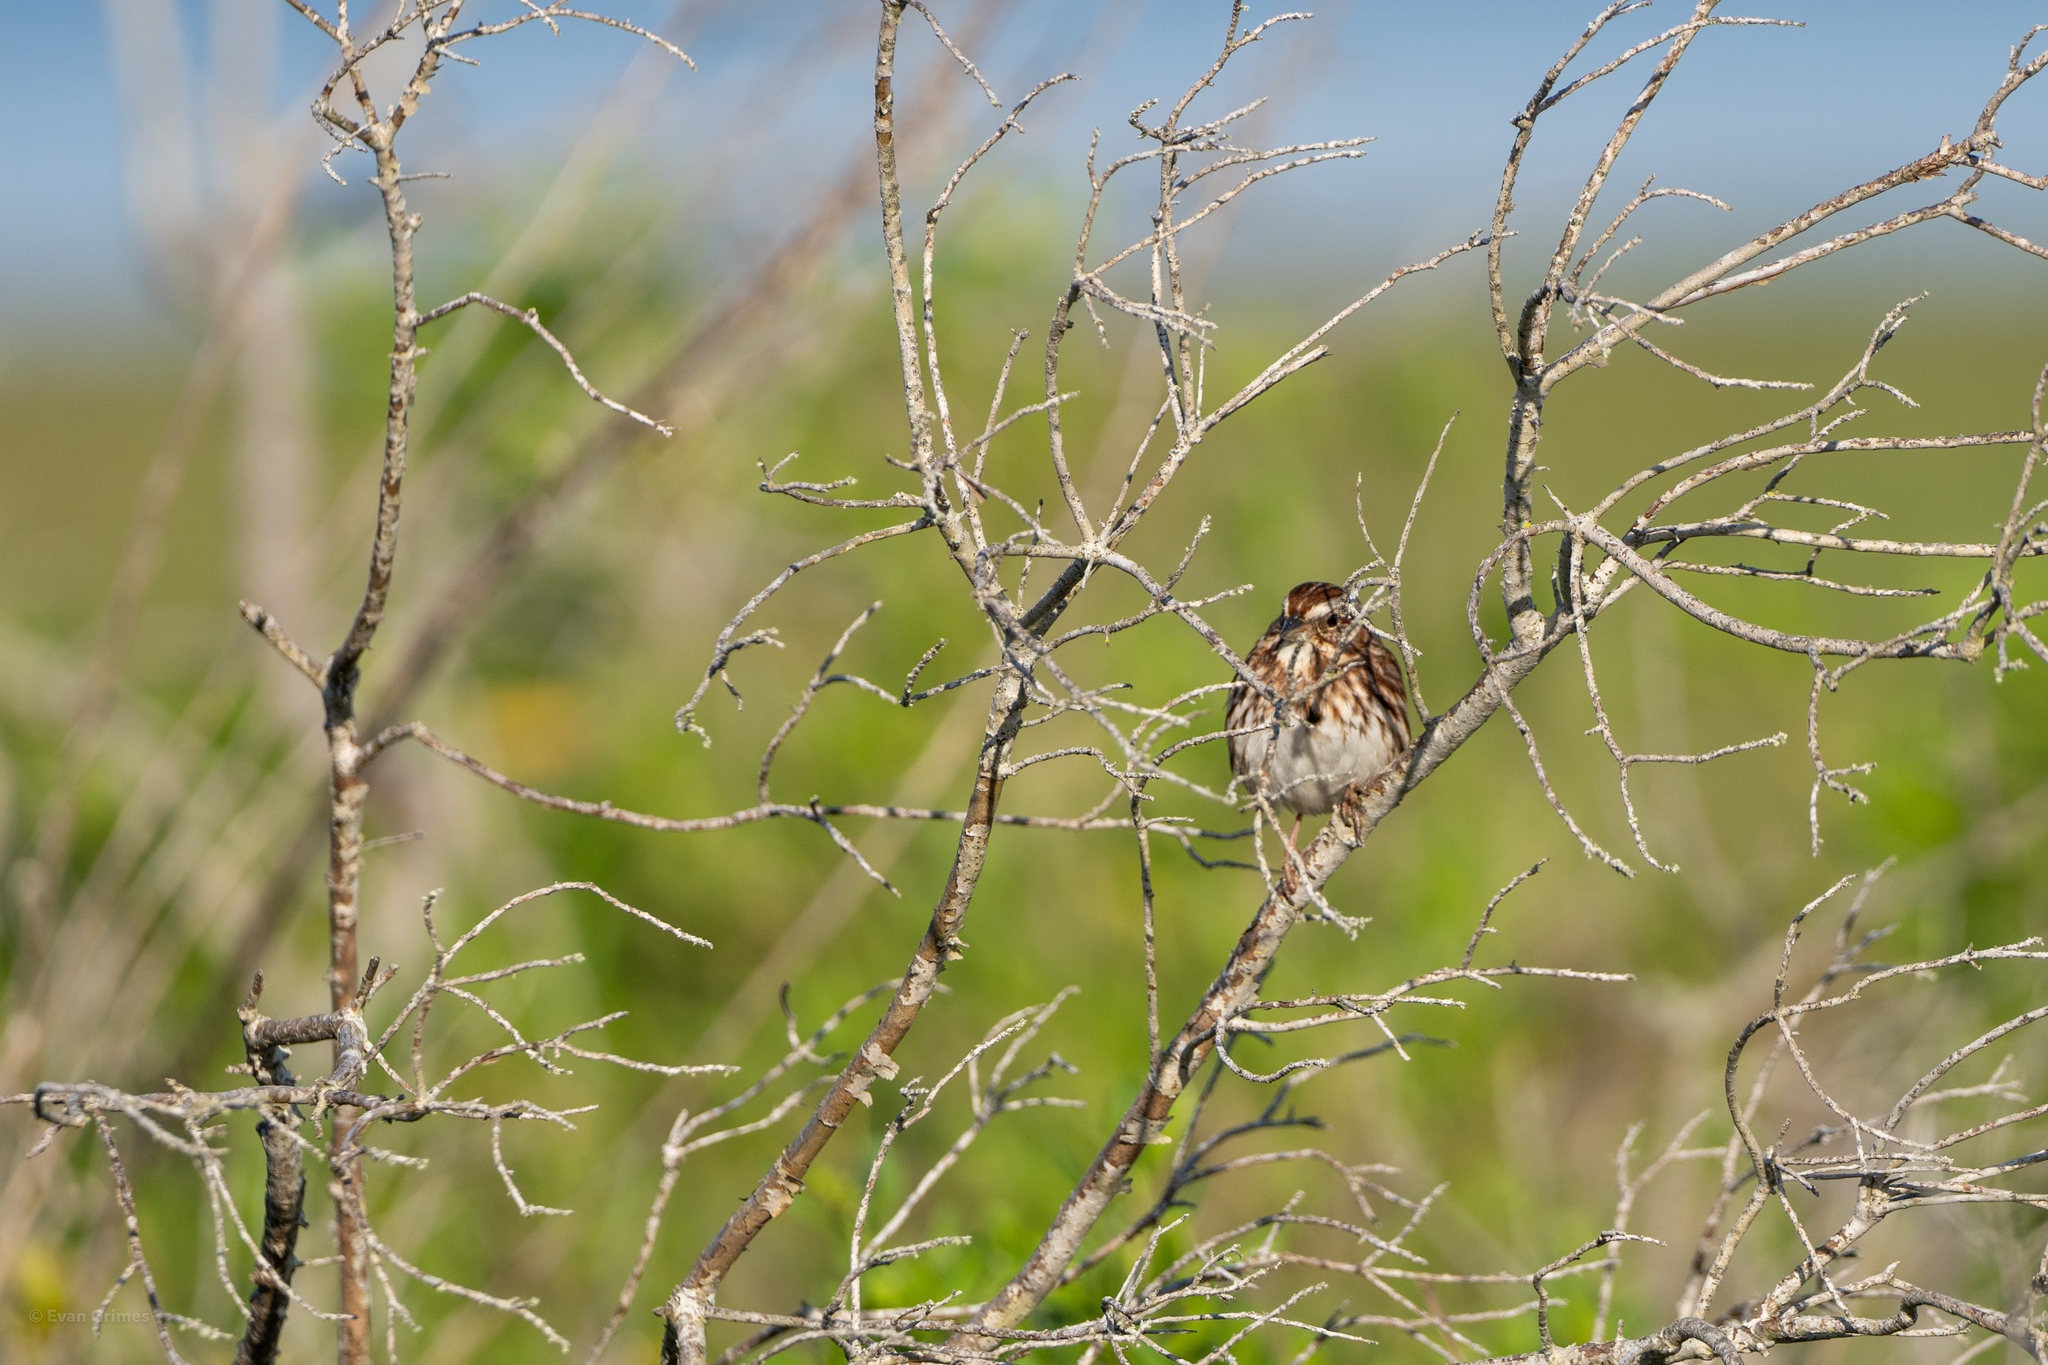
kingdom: Animalia
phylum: Chordata
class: Aves
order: Passeriformes
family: Passerellidae
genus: Melospiza
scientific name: Melospiza melodia
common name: Song sparrow
